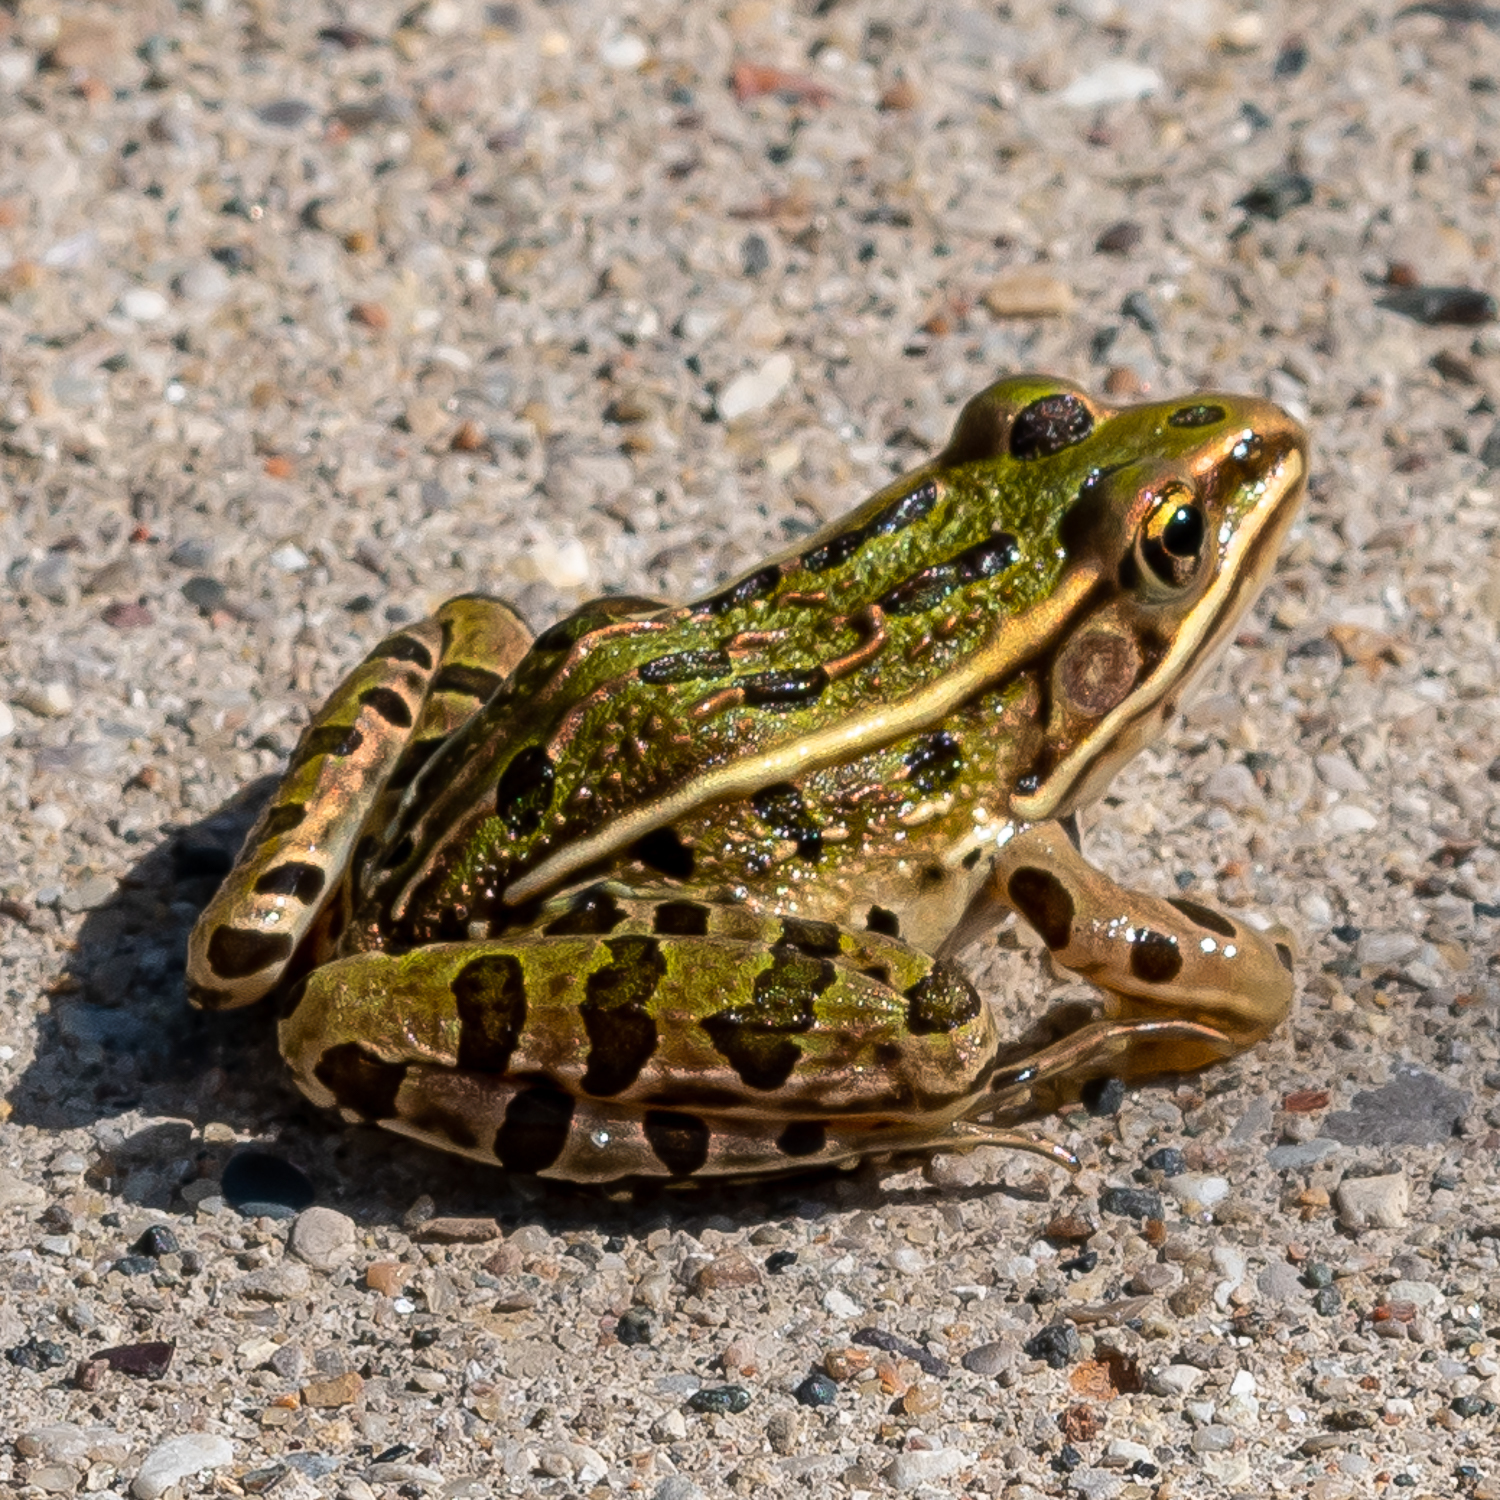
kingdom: Animalia
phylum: Chordata
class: Amphibia
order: Anura
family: Ranidae
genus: Lithobates
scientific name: Lithobates pipiens
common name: Northern leopard frog
